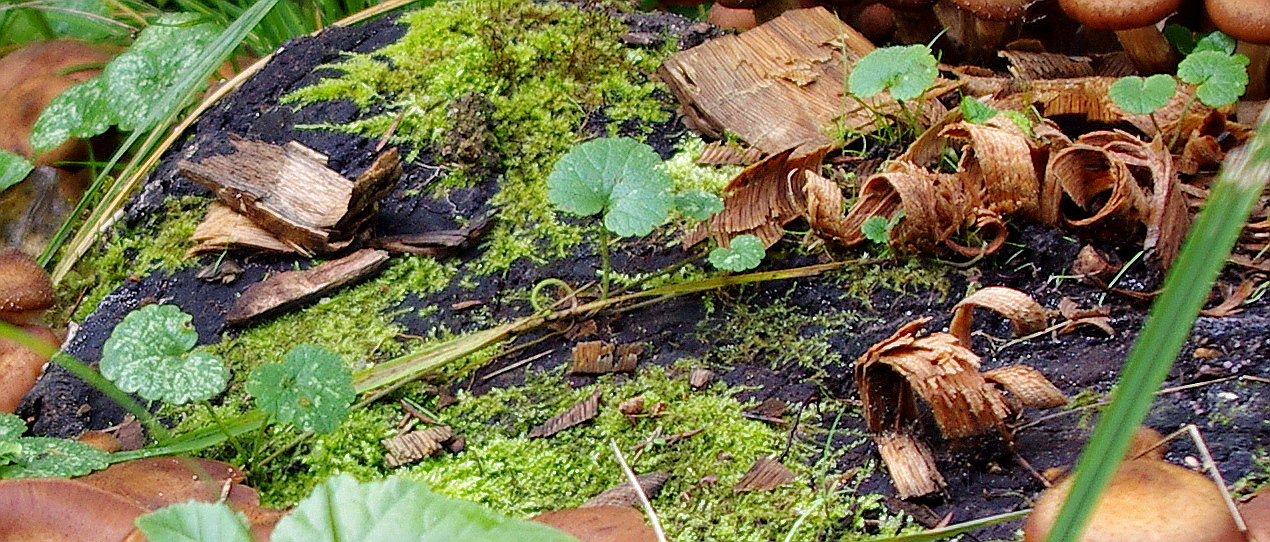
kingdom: Plantae
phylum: Tracheophyta
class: Magnoliopsida
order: Lamiales
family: Lamiaceae
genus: Glechoma
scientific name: Glechoma hederacea
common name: Ground ivy
